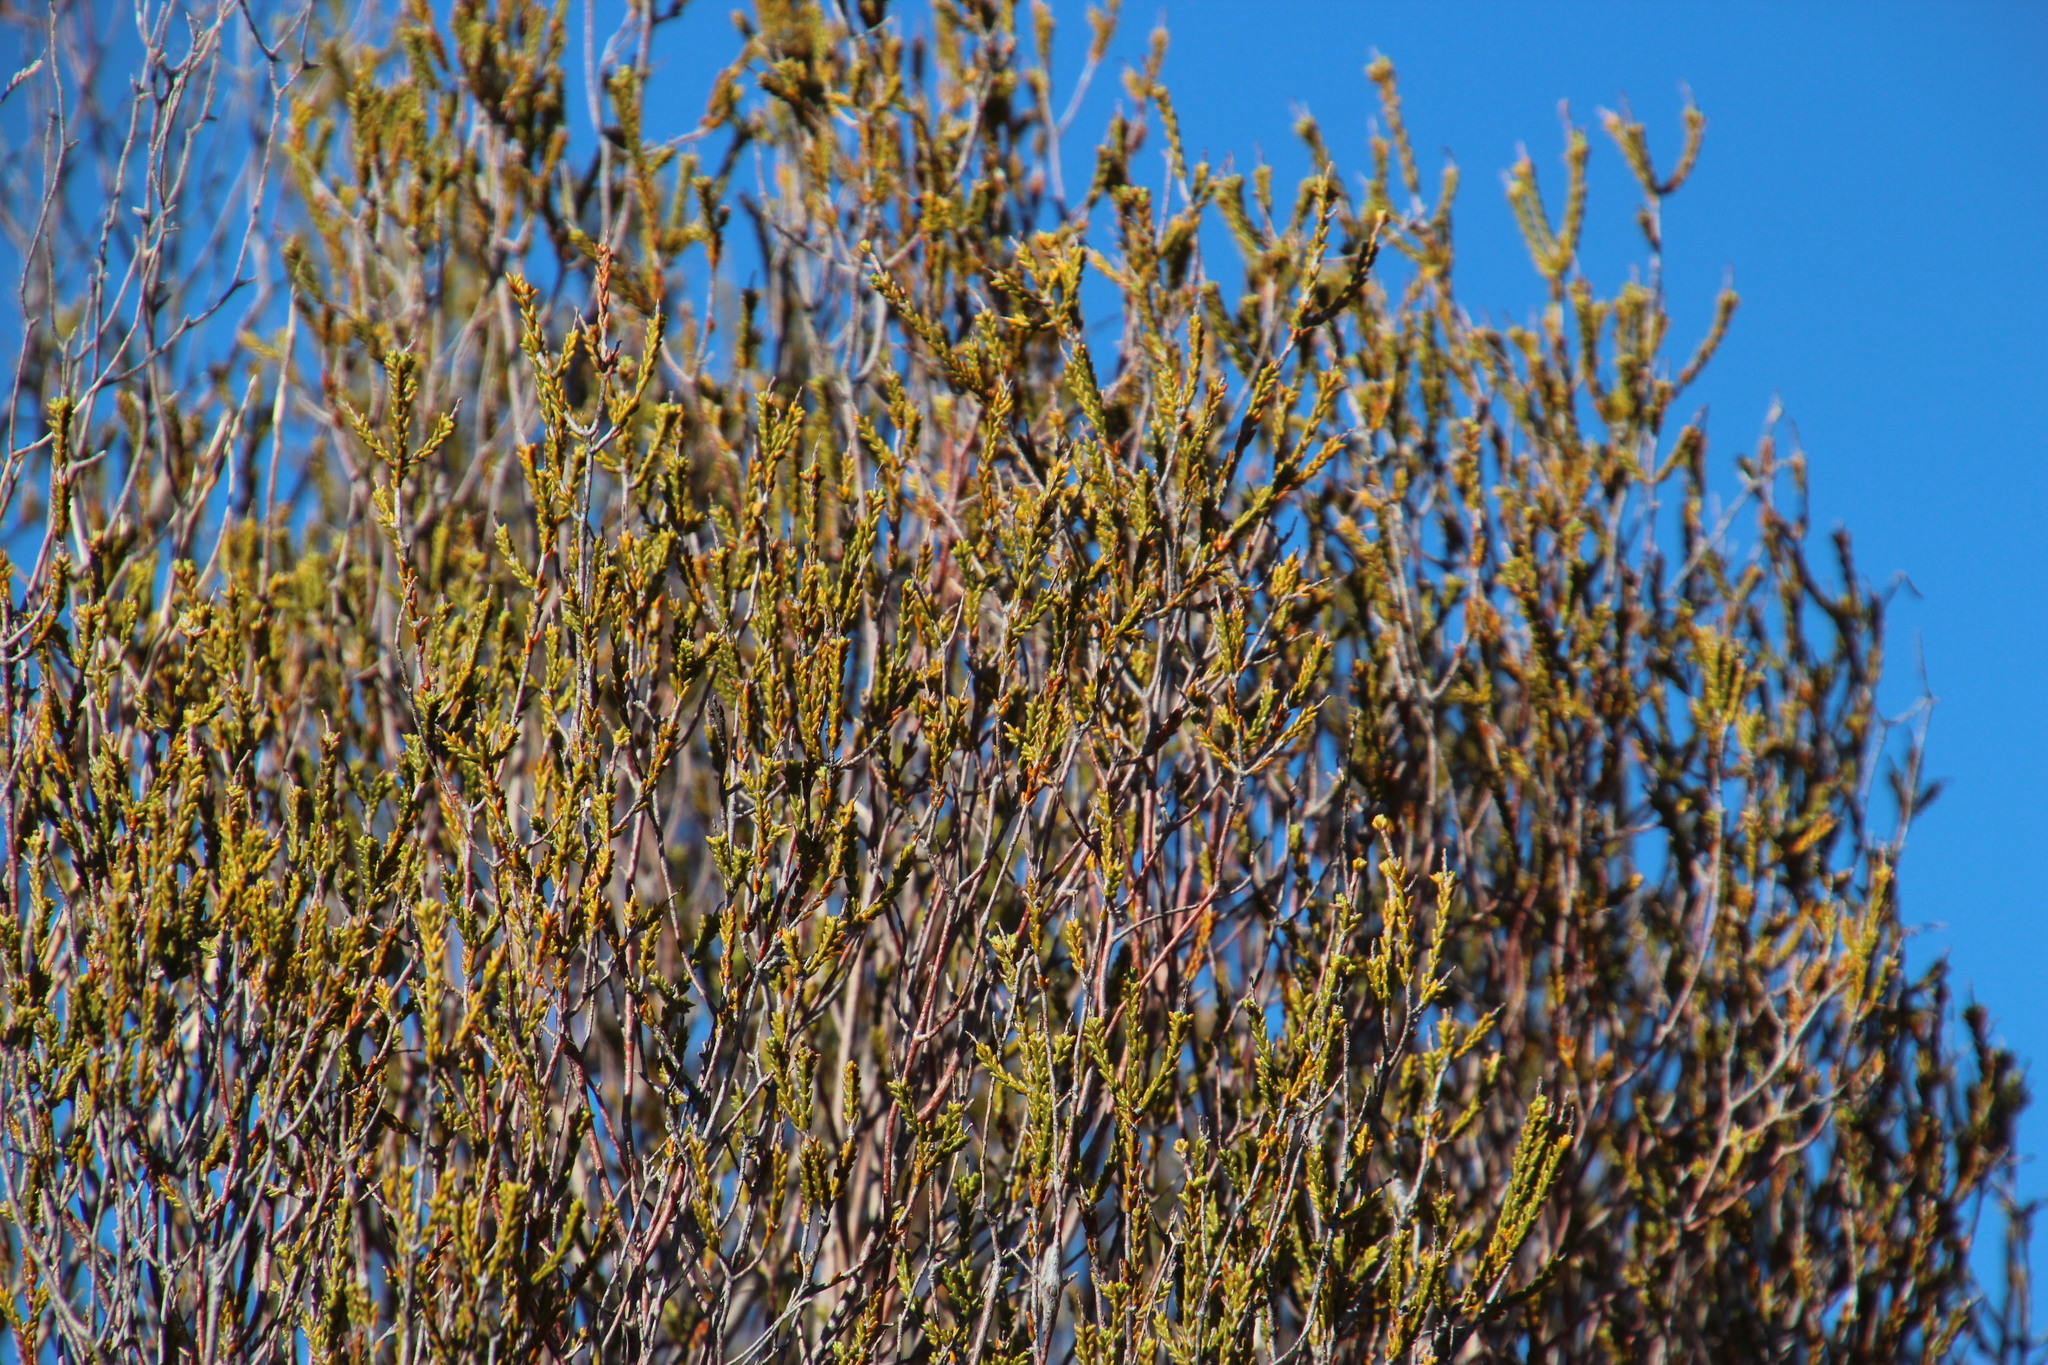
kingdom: Plantae
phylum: Tracheophyta
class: Magnoliopsida
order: Malvales
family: Thymelaeaceae
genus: Passerina
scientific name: Passerina truncata
